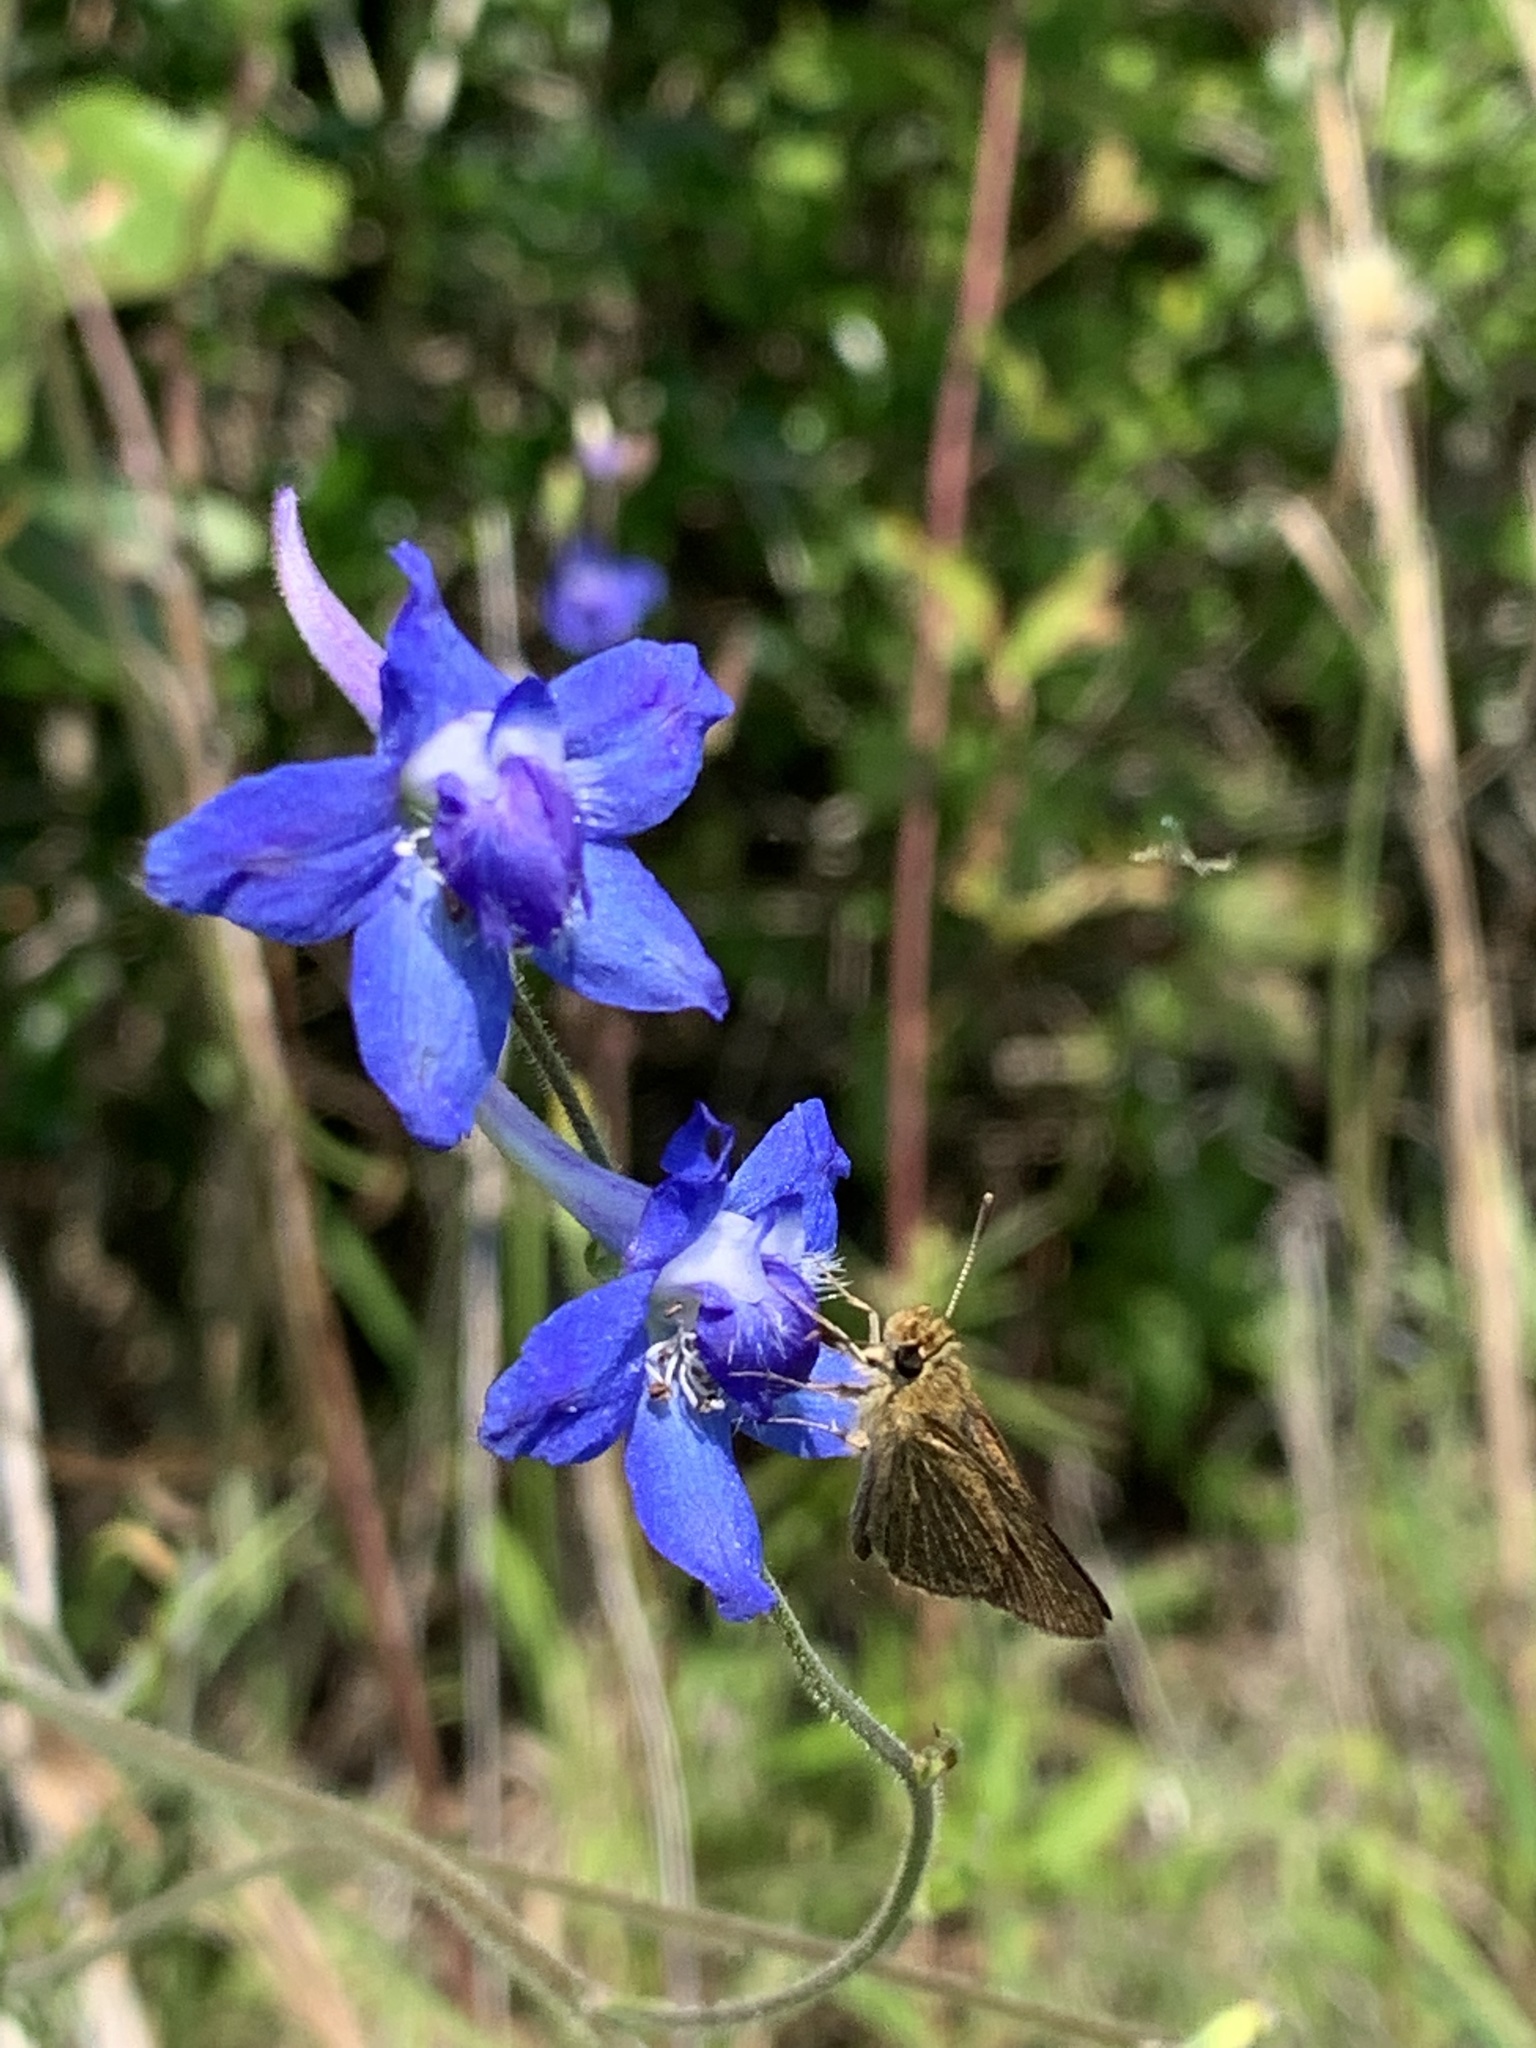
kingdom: Plantae
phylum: Tracheophyta
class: Magnoliopsida
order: Ranunculales
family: Ranunculaceae
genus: Delphinium
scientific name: Delphinium carolinianum
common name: Carolina larkspur
